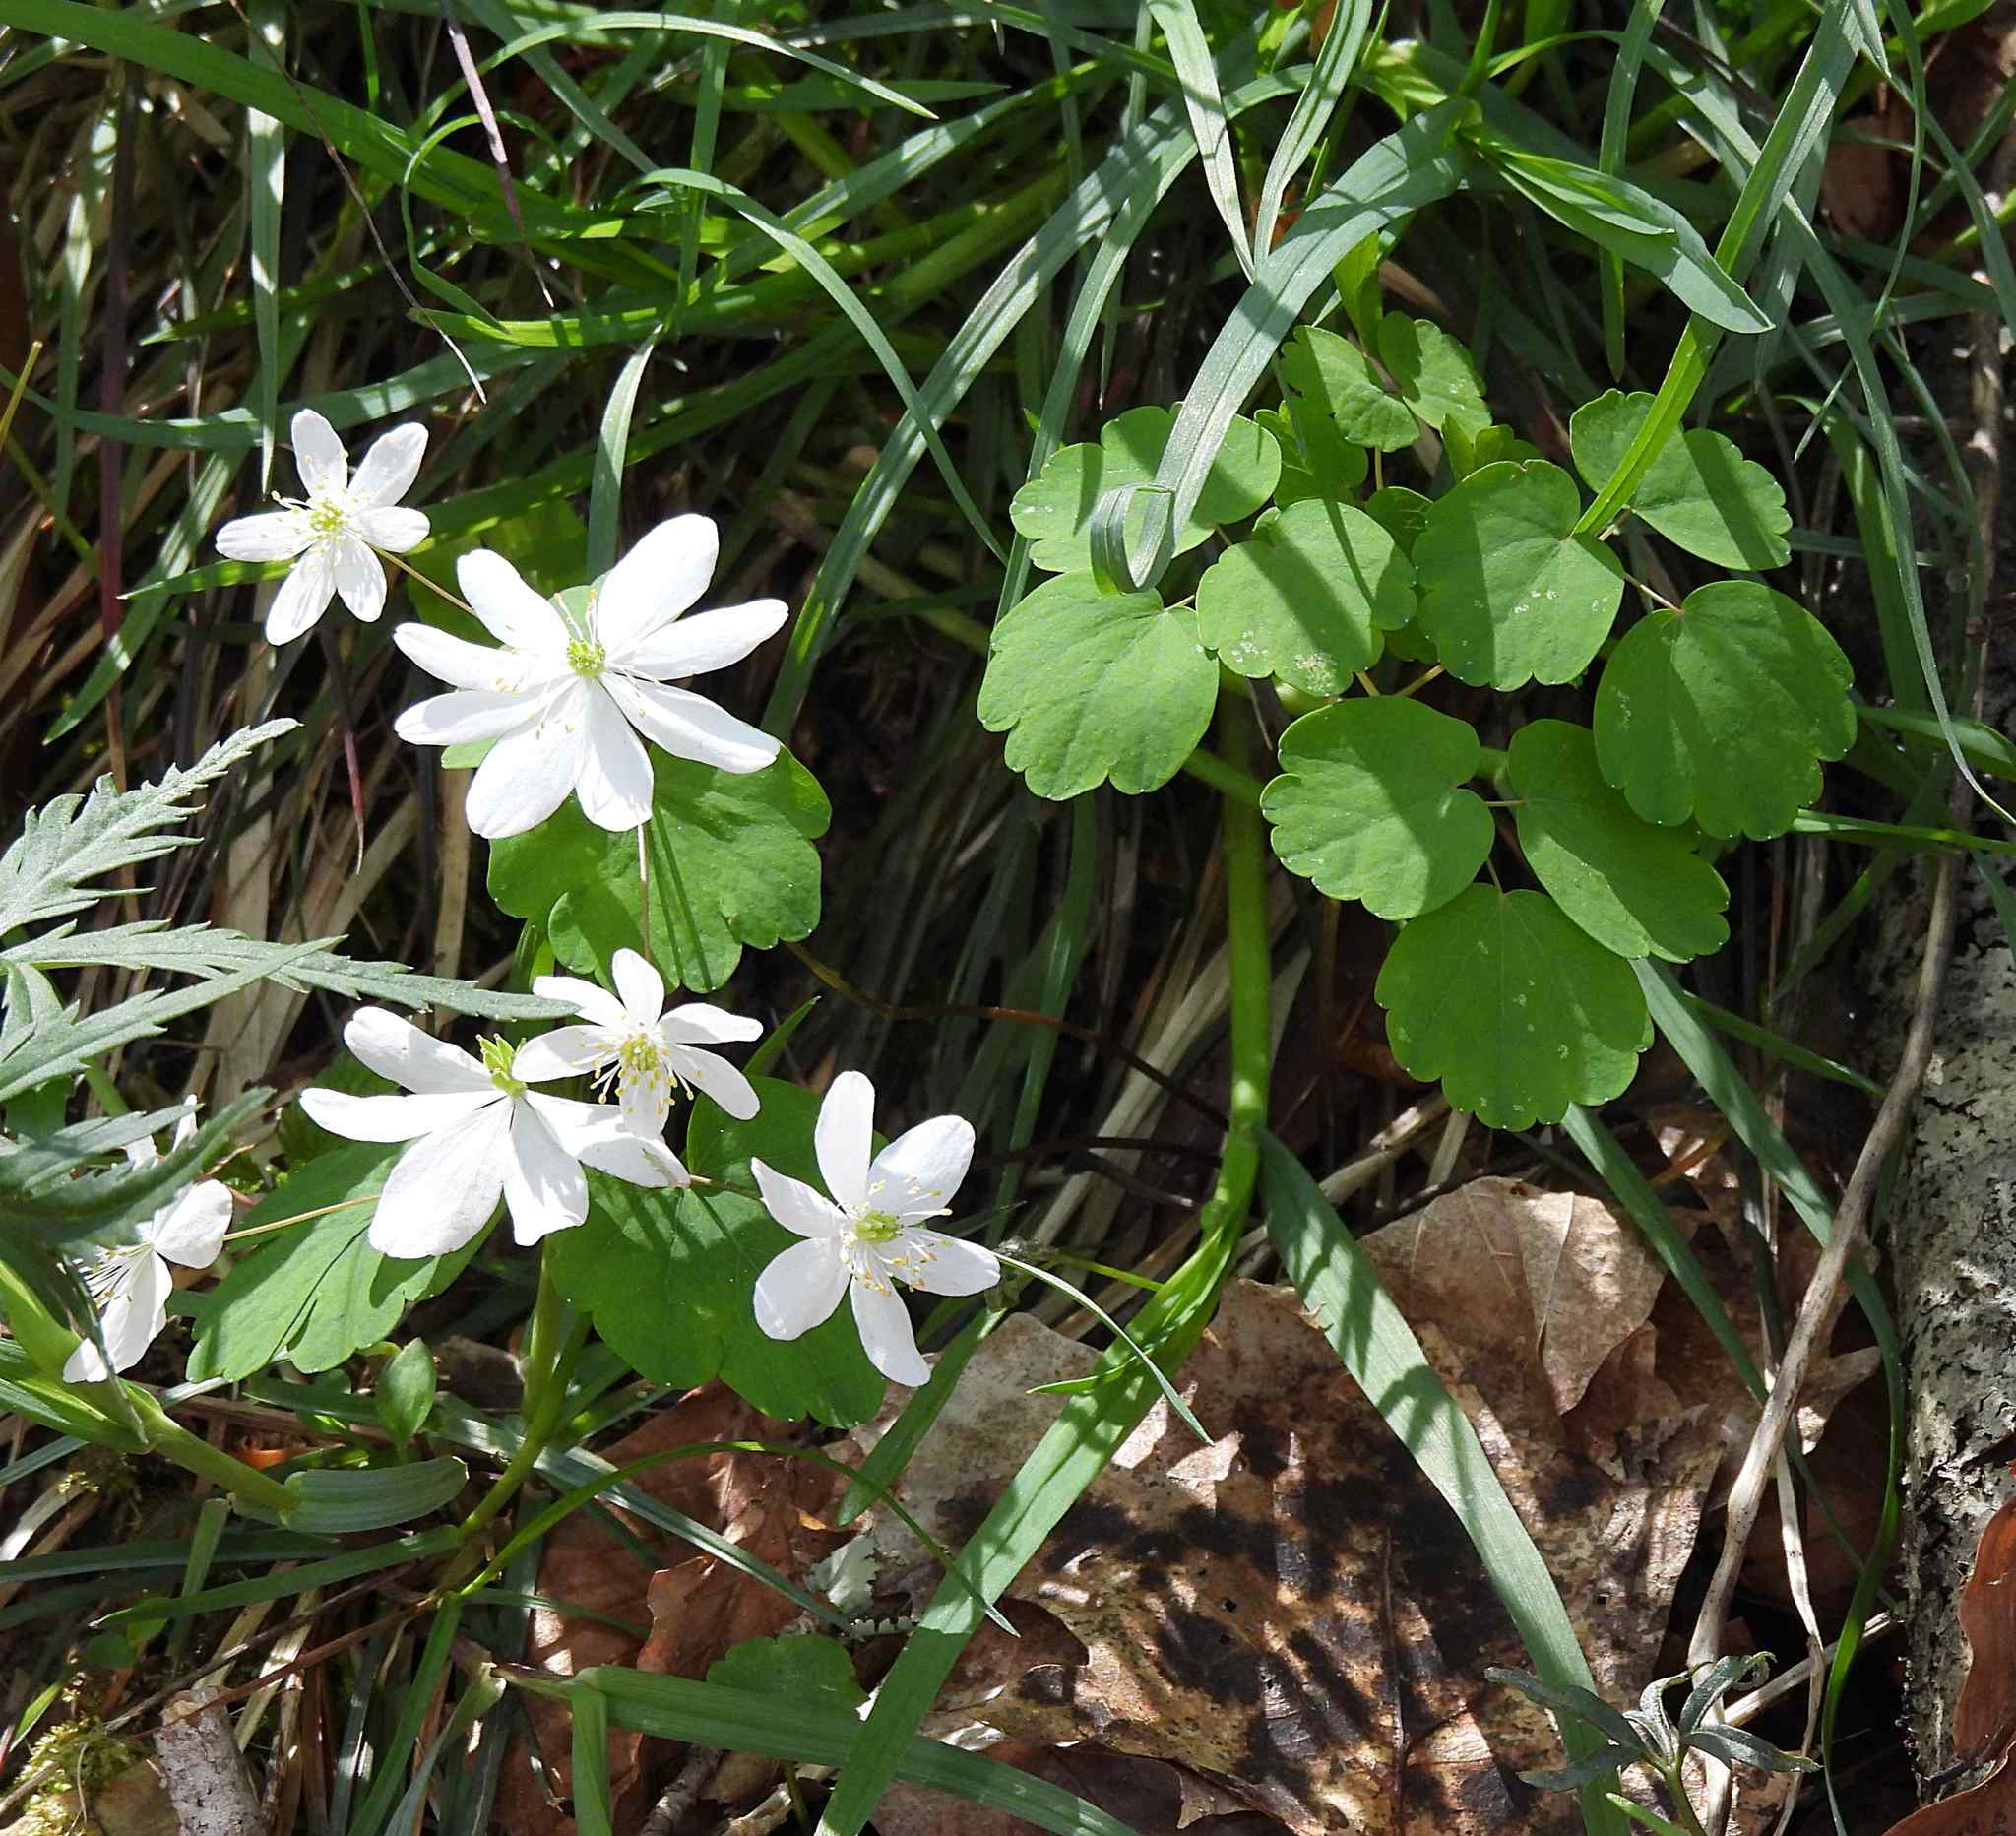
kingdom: Plantae
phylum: Tracheophyta
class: Magnoliopsida
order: Ranunculales
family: Ranunculaceae
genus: Thalictrum
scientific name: Thalictrum thalictroides
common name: Rue-anemone
